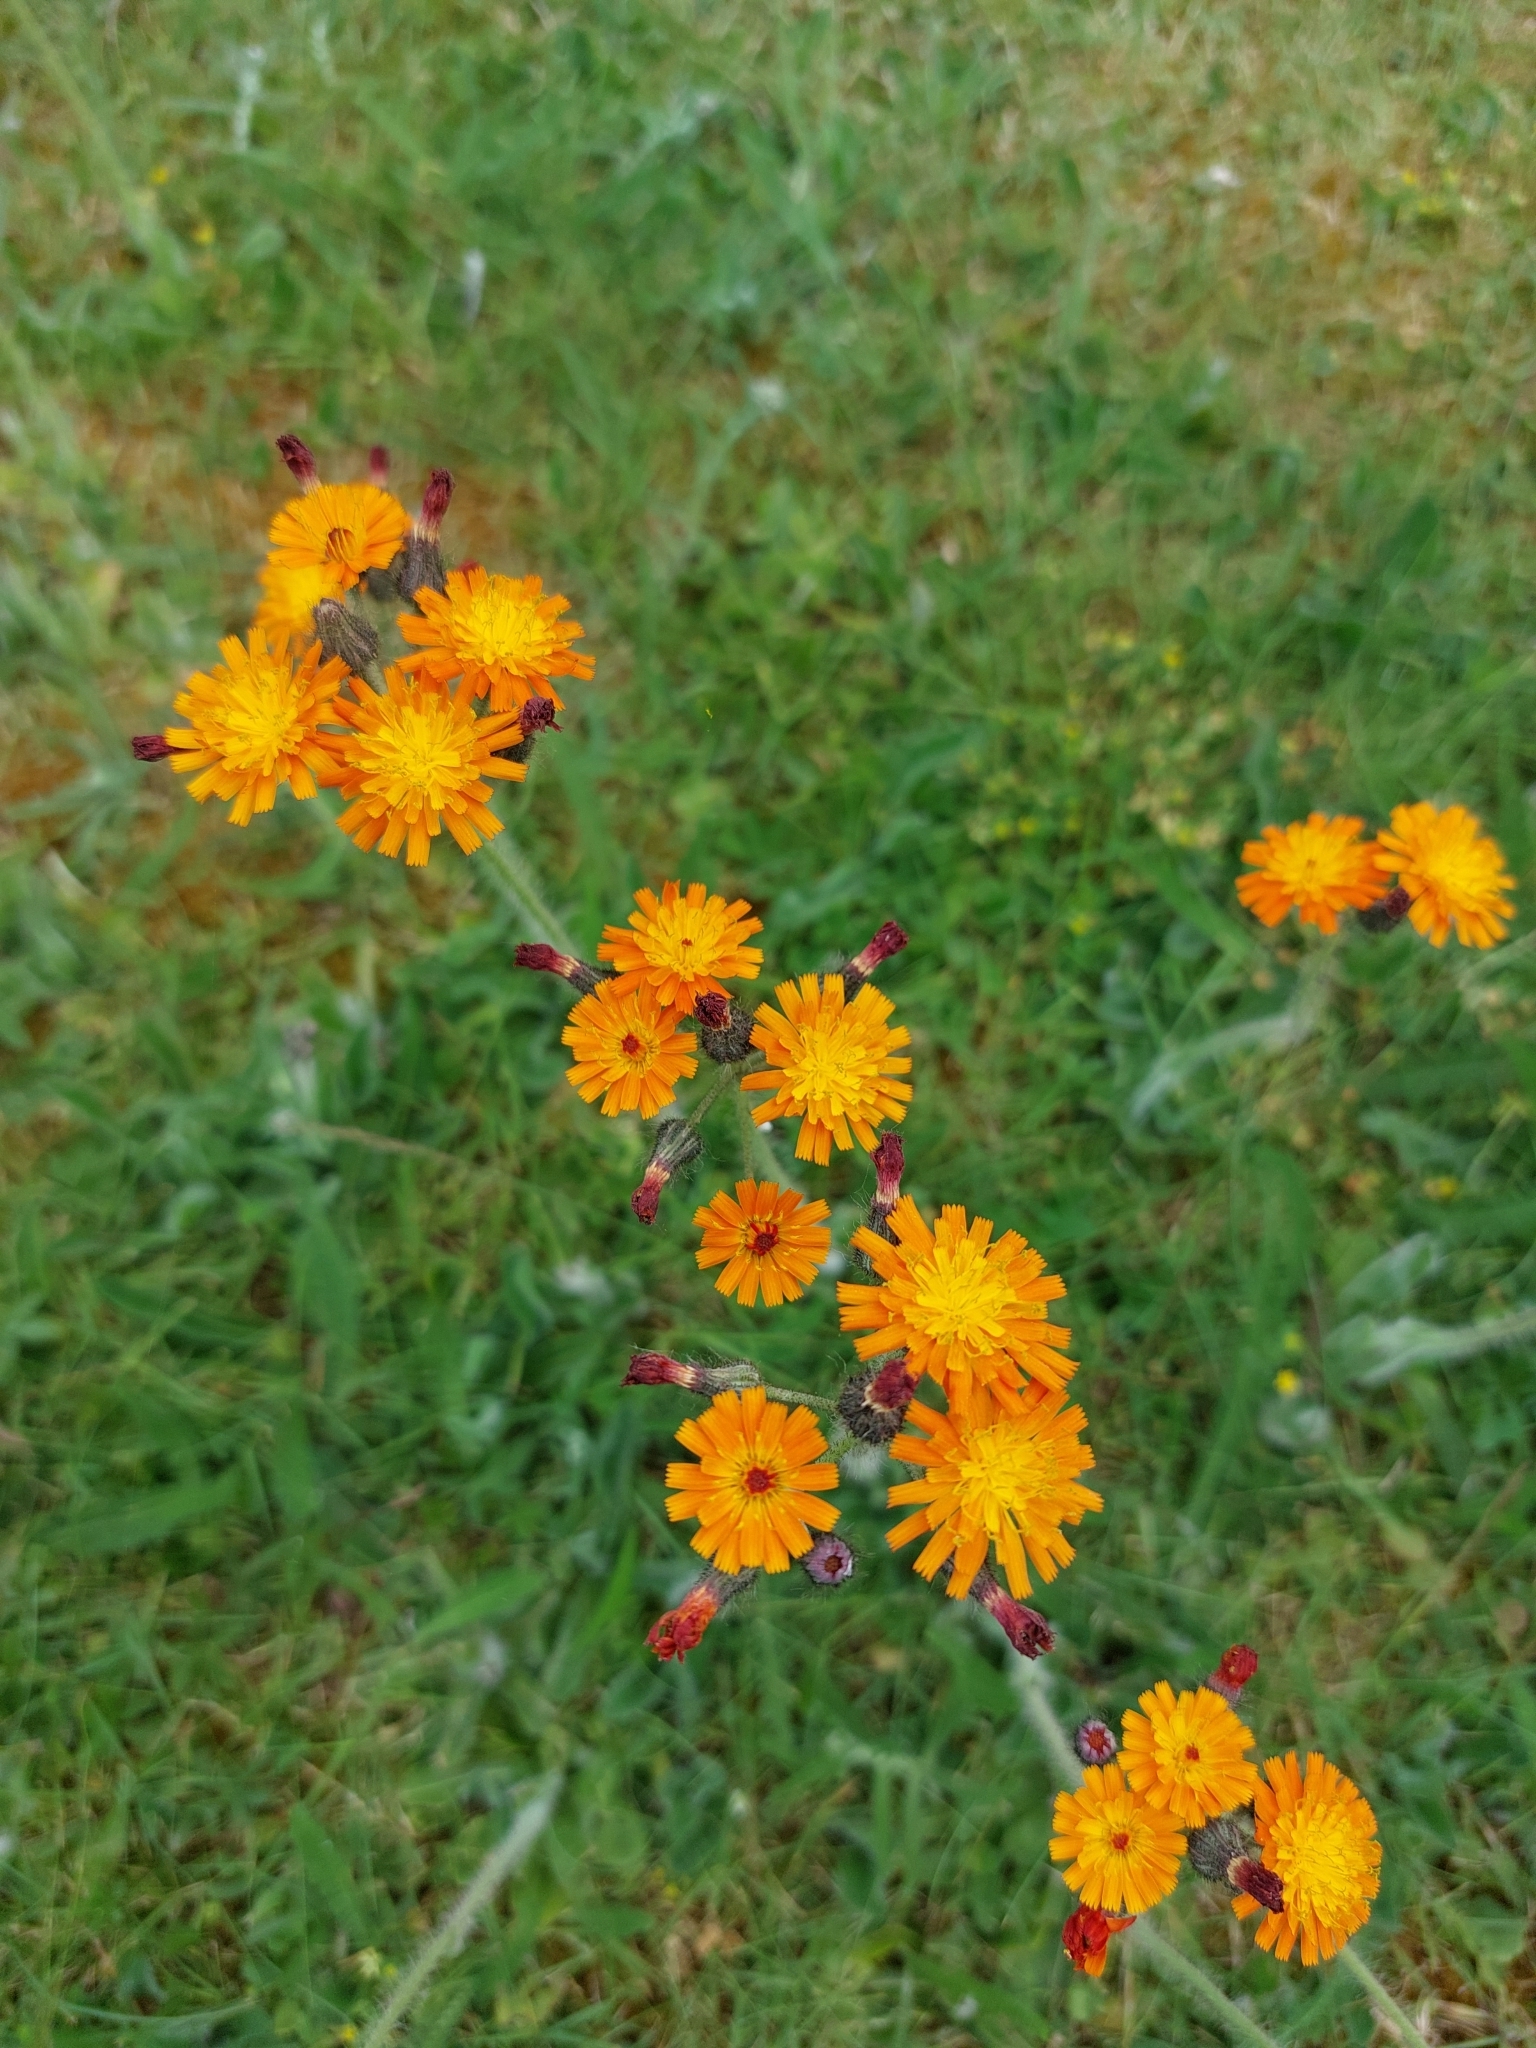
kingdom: Plantae
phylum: Tracheophyta
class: Magnoliopsida
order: Asterales
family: Asteraceae
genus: Pilosella
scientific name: Pilosella aurantiaca
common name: Fox-and-cubs
